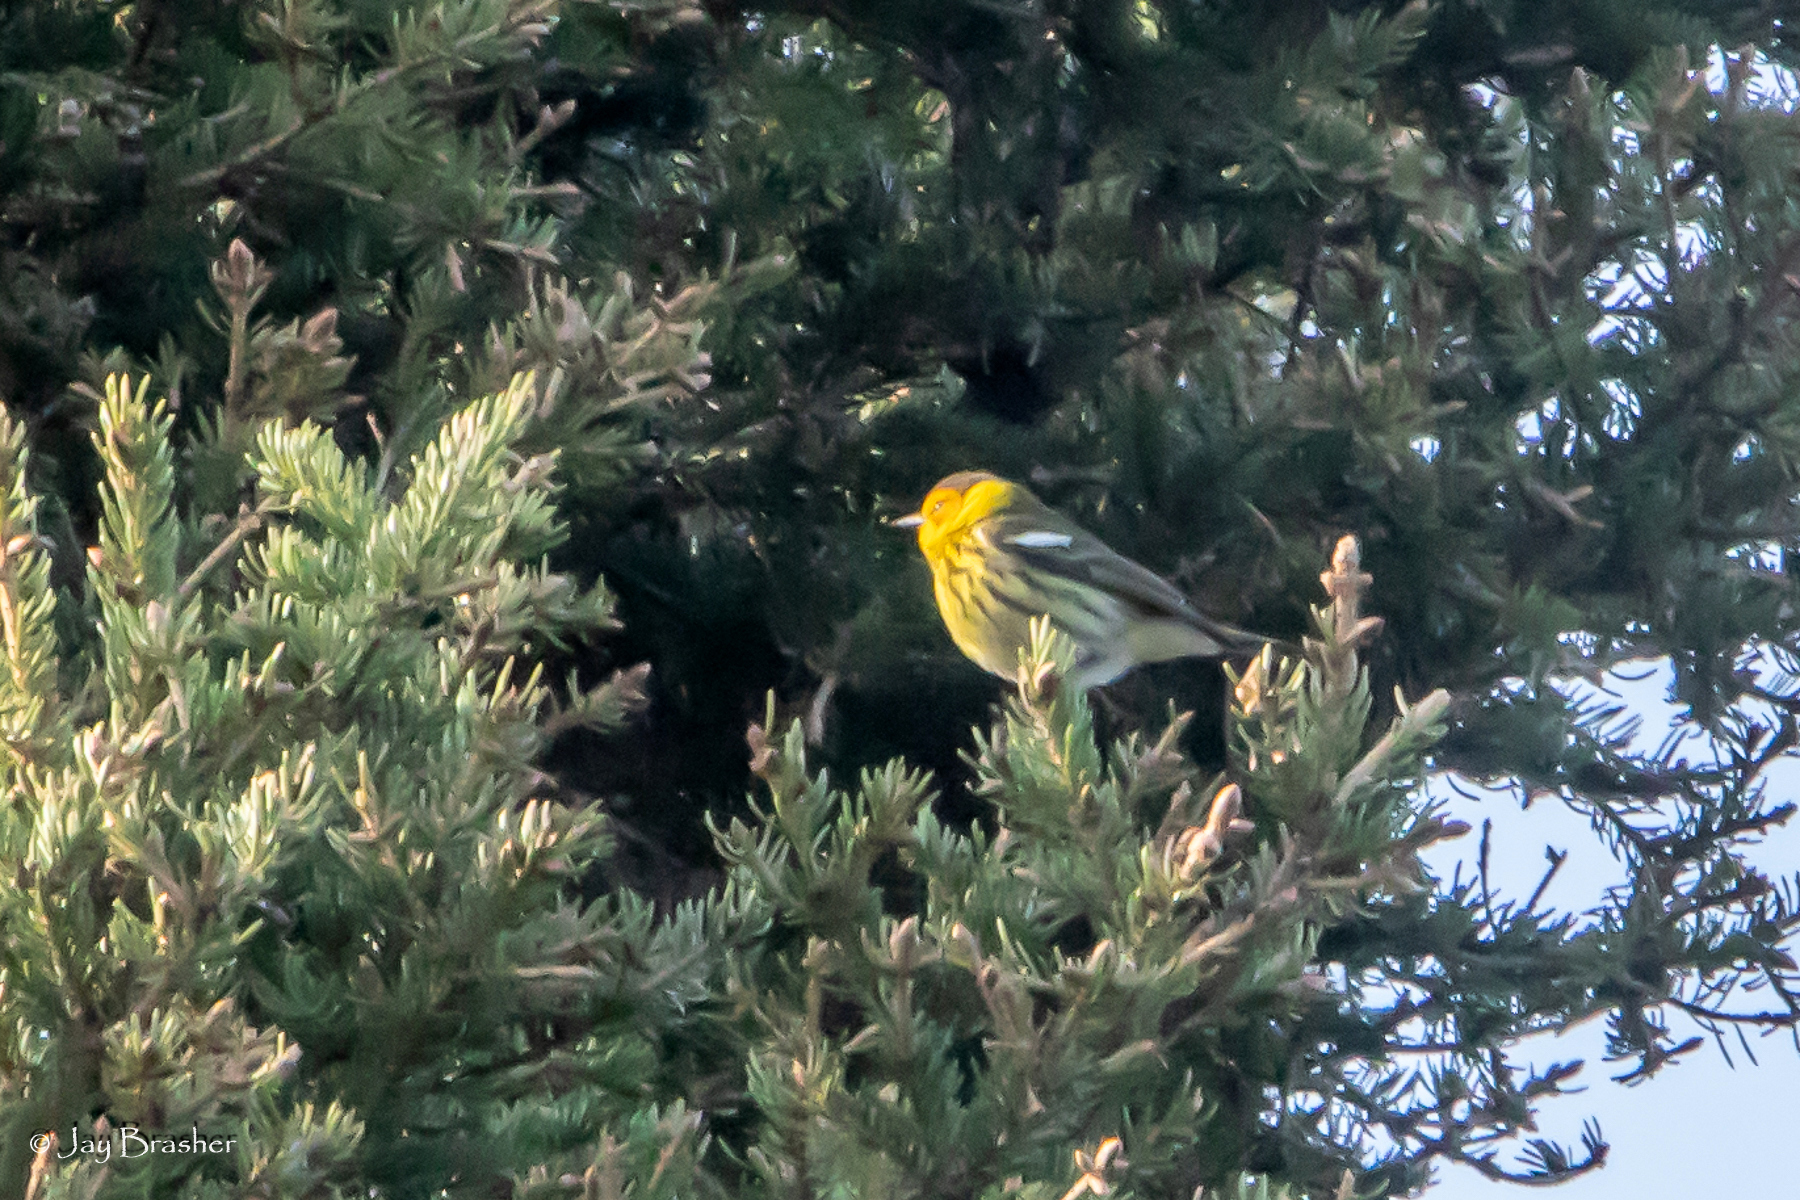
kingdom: Animalia
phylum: Chordata
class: Aves
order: Passeriformes
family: Parulidae
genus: Setophaga
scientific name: Setophaga tigrina
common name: Cape may warbler
